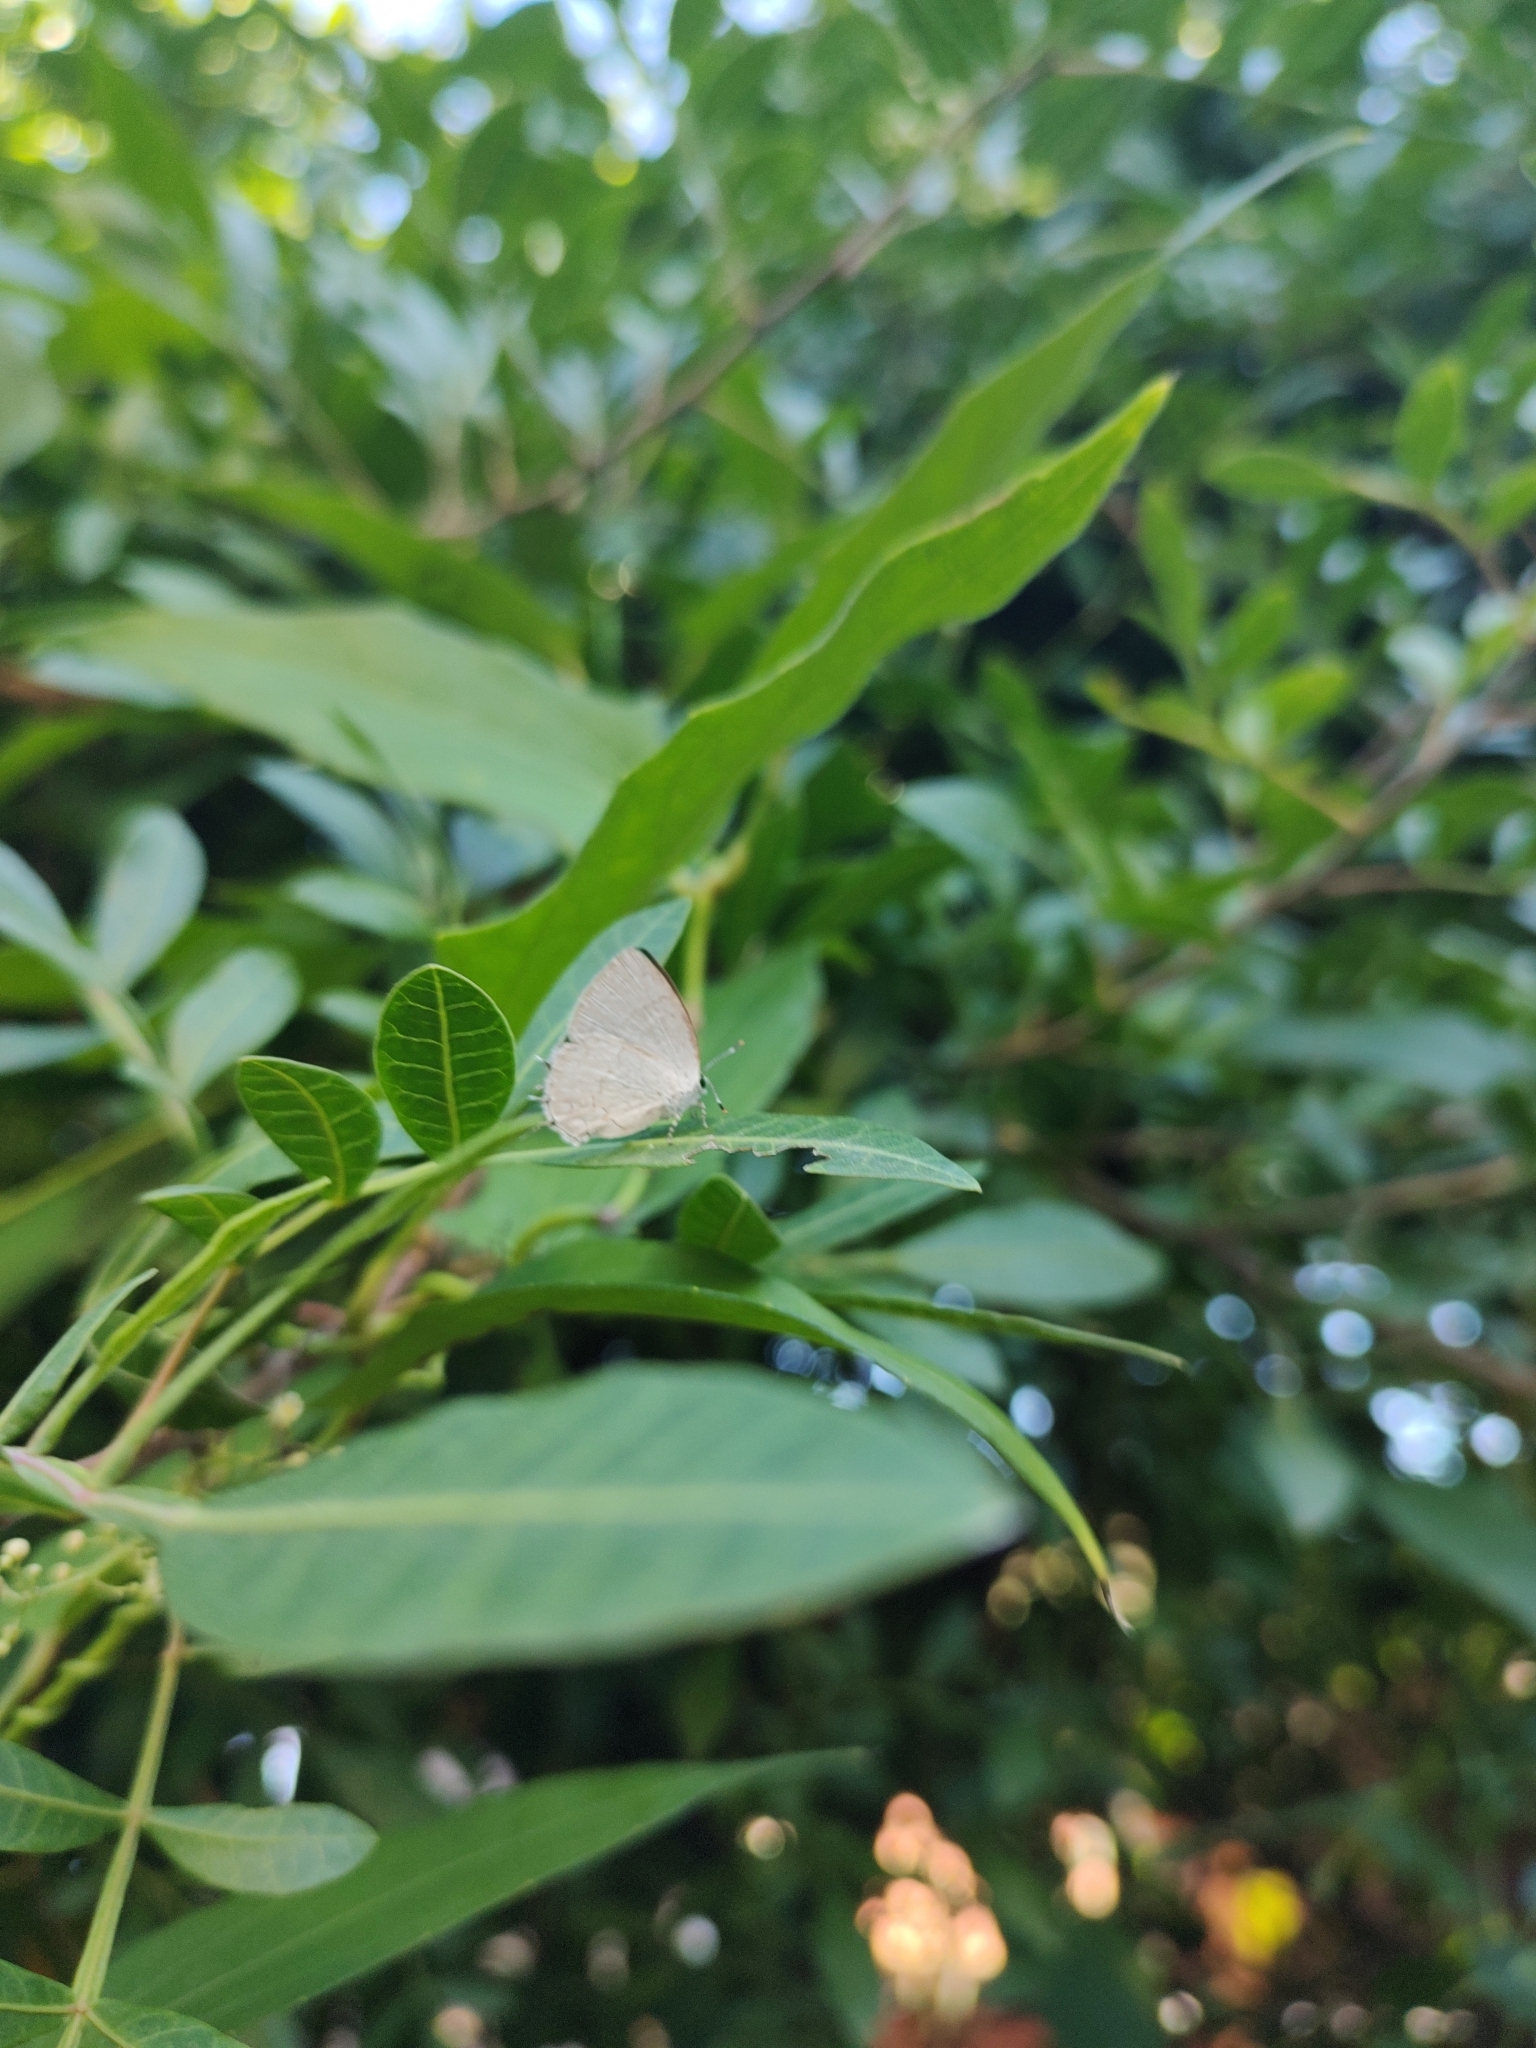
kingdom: Animalia
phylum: Arthropoda
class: Insecta
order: Lepidoptera
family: Lycaenidae
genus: Symbiopsis
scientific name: Symbiopsis lenitas
